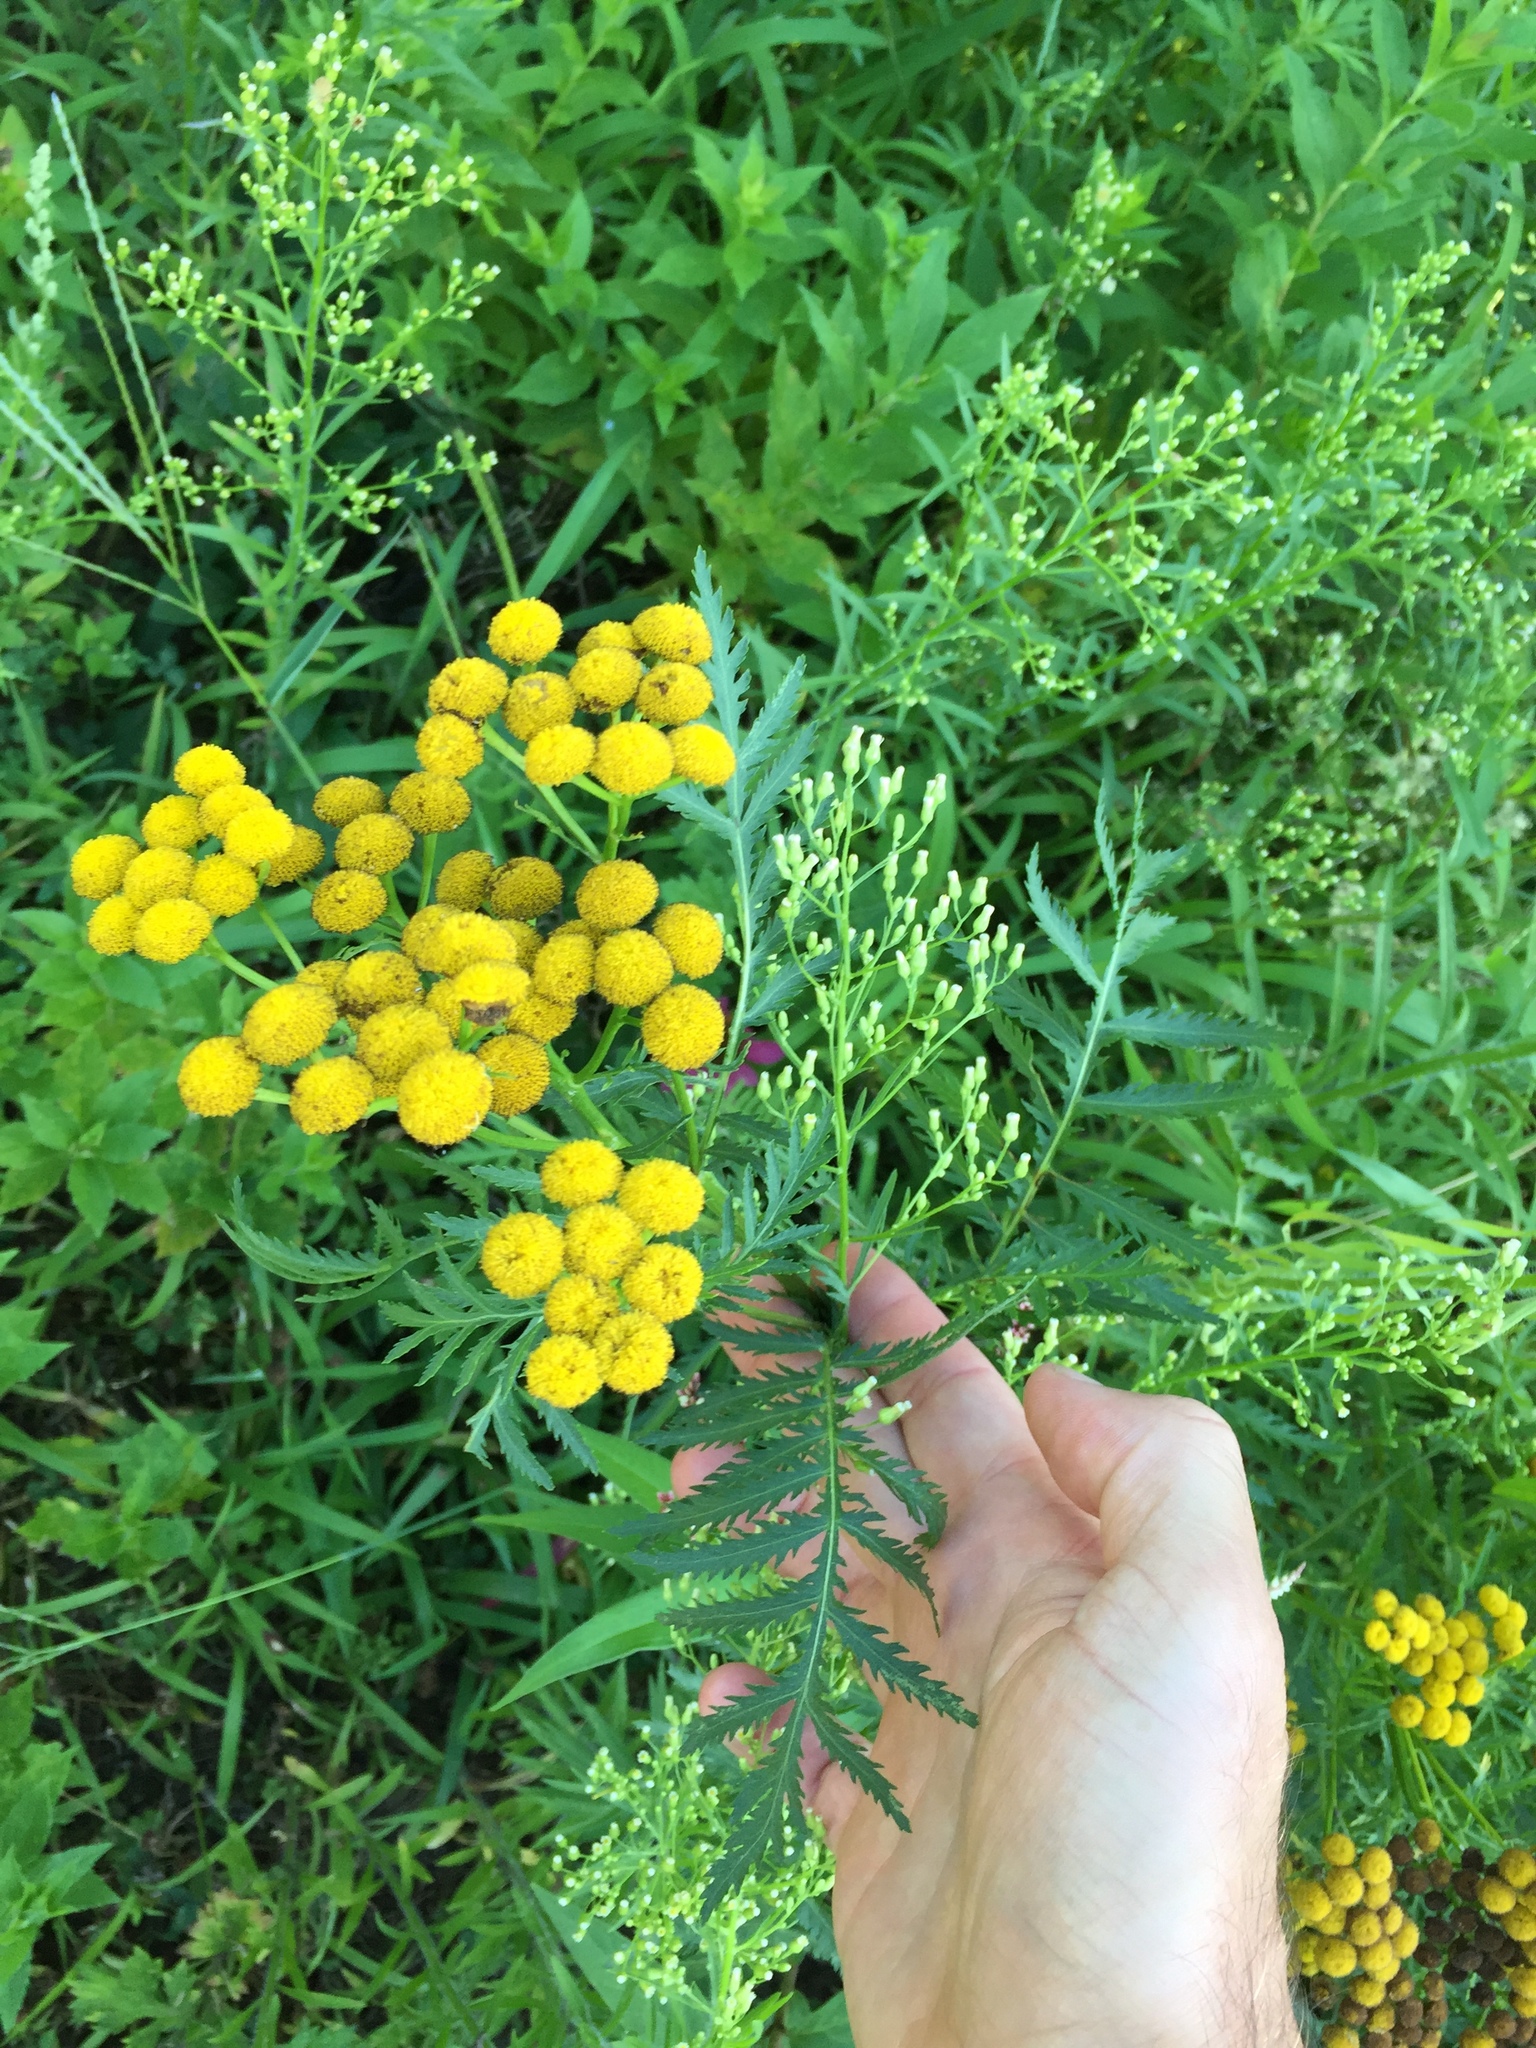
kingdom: Plantae
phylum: Tracheophyta
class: Magnoliopsida
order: Asterales
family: Asteraceae
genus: Tanacetum
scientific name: Tanacetum vulgare
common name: Common tansy
